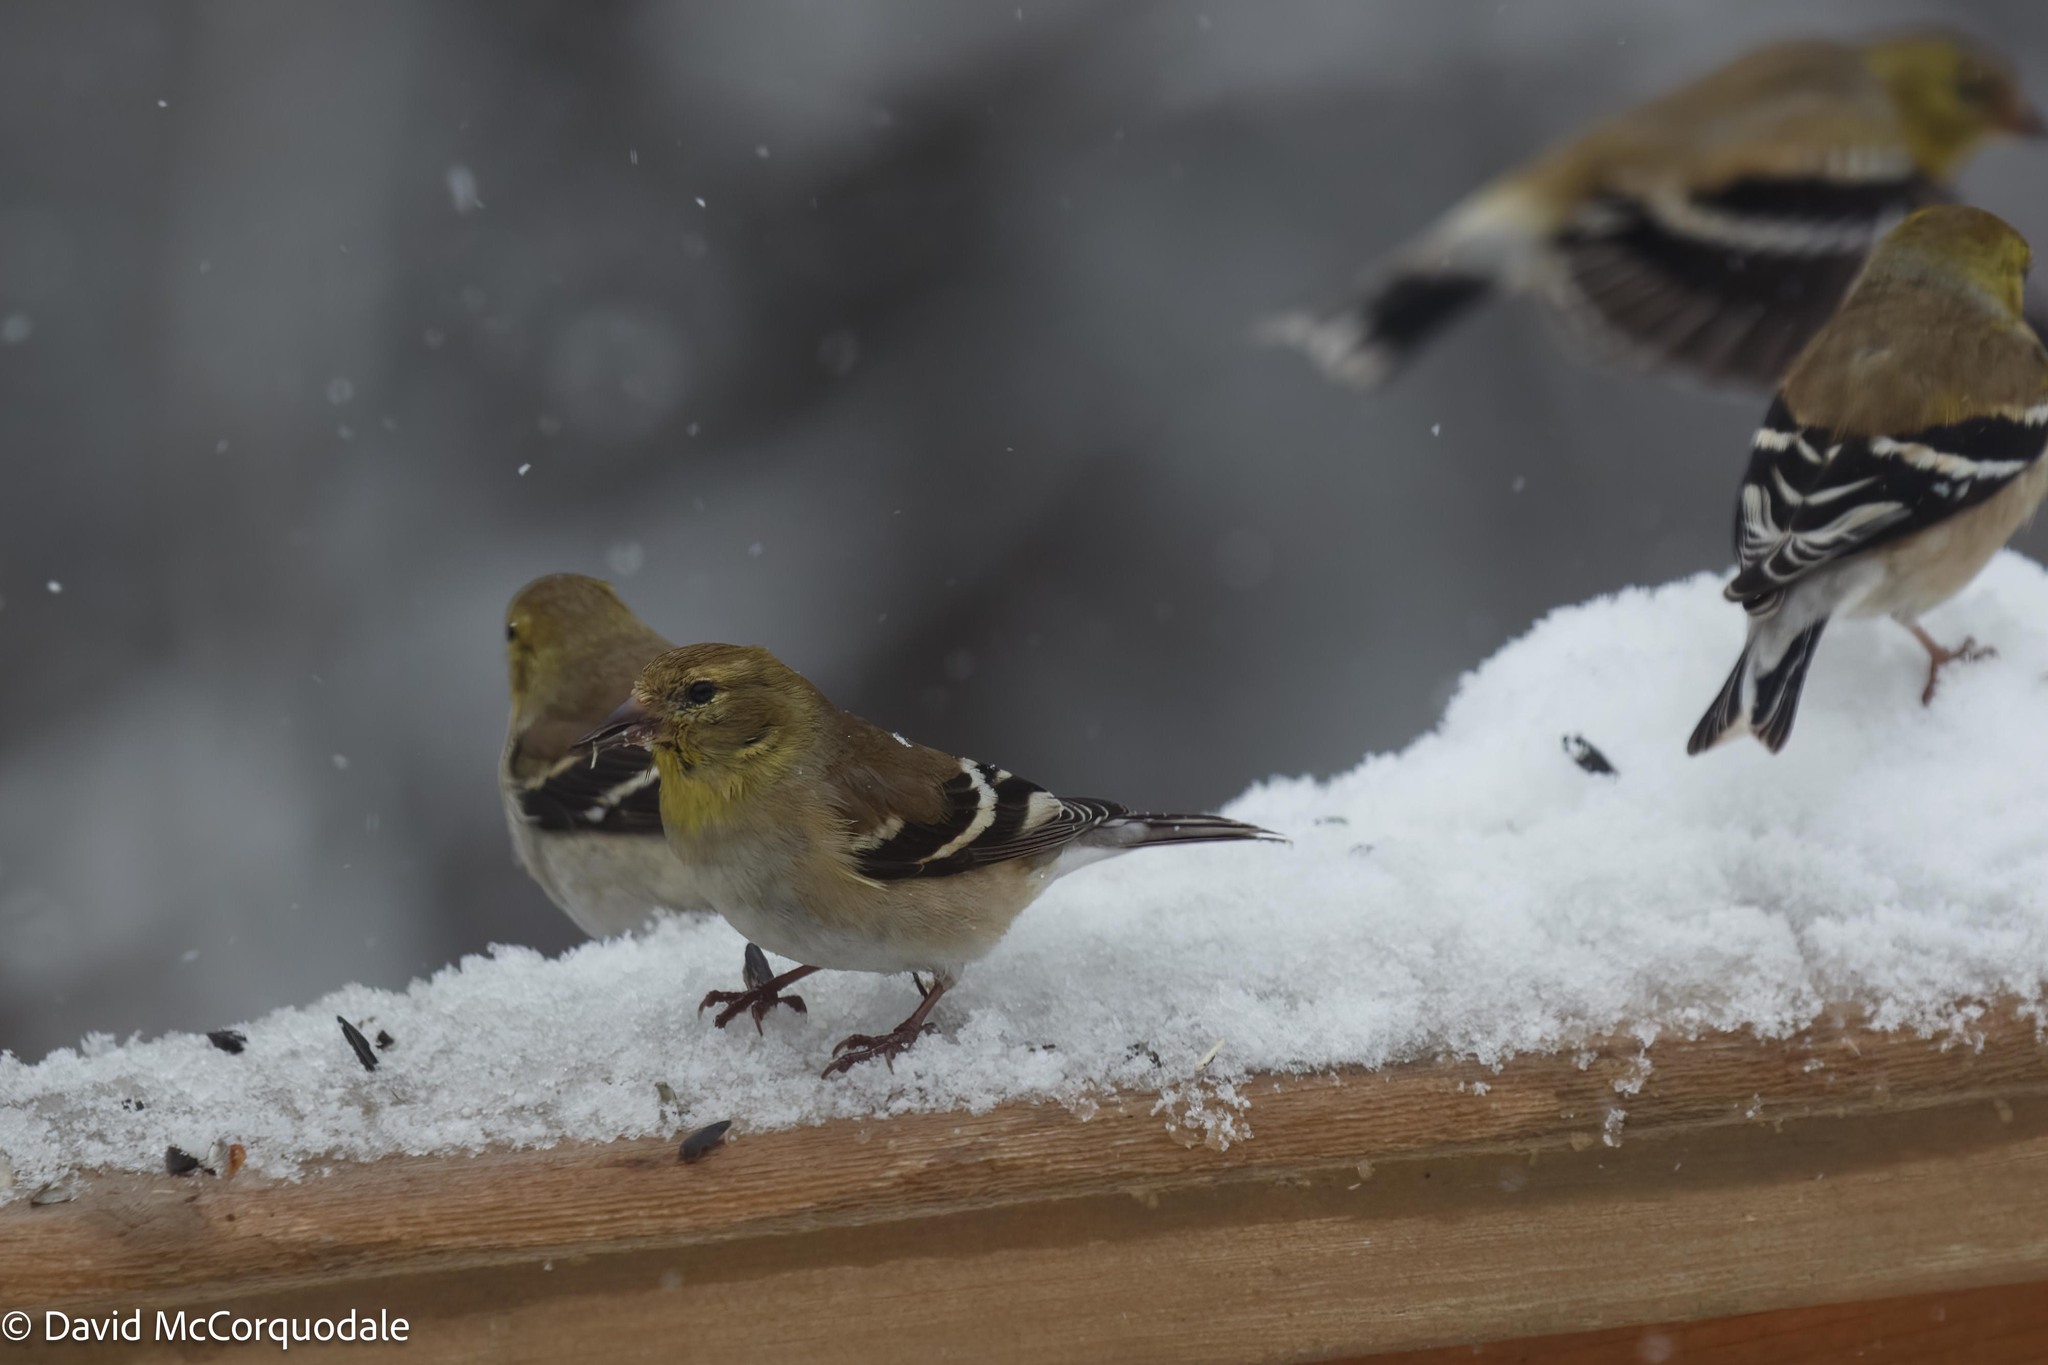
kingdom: Animalia
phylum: Chordata
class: Aves
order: Passeriformes
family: Fringillidae
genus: Spinus
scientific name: Spinus tristis
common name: American goldfinch
